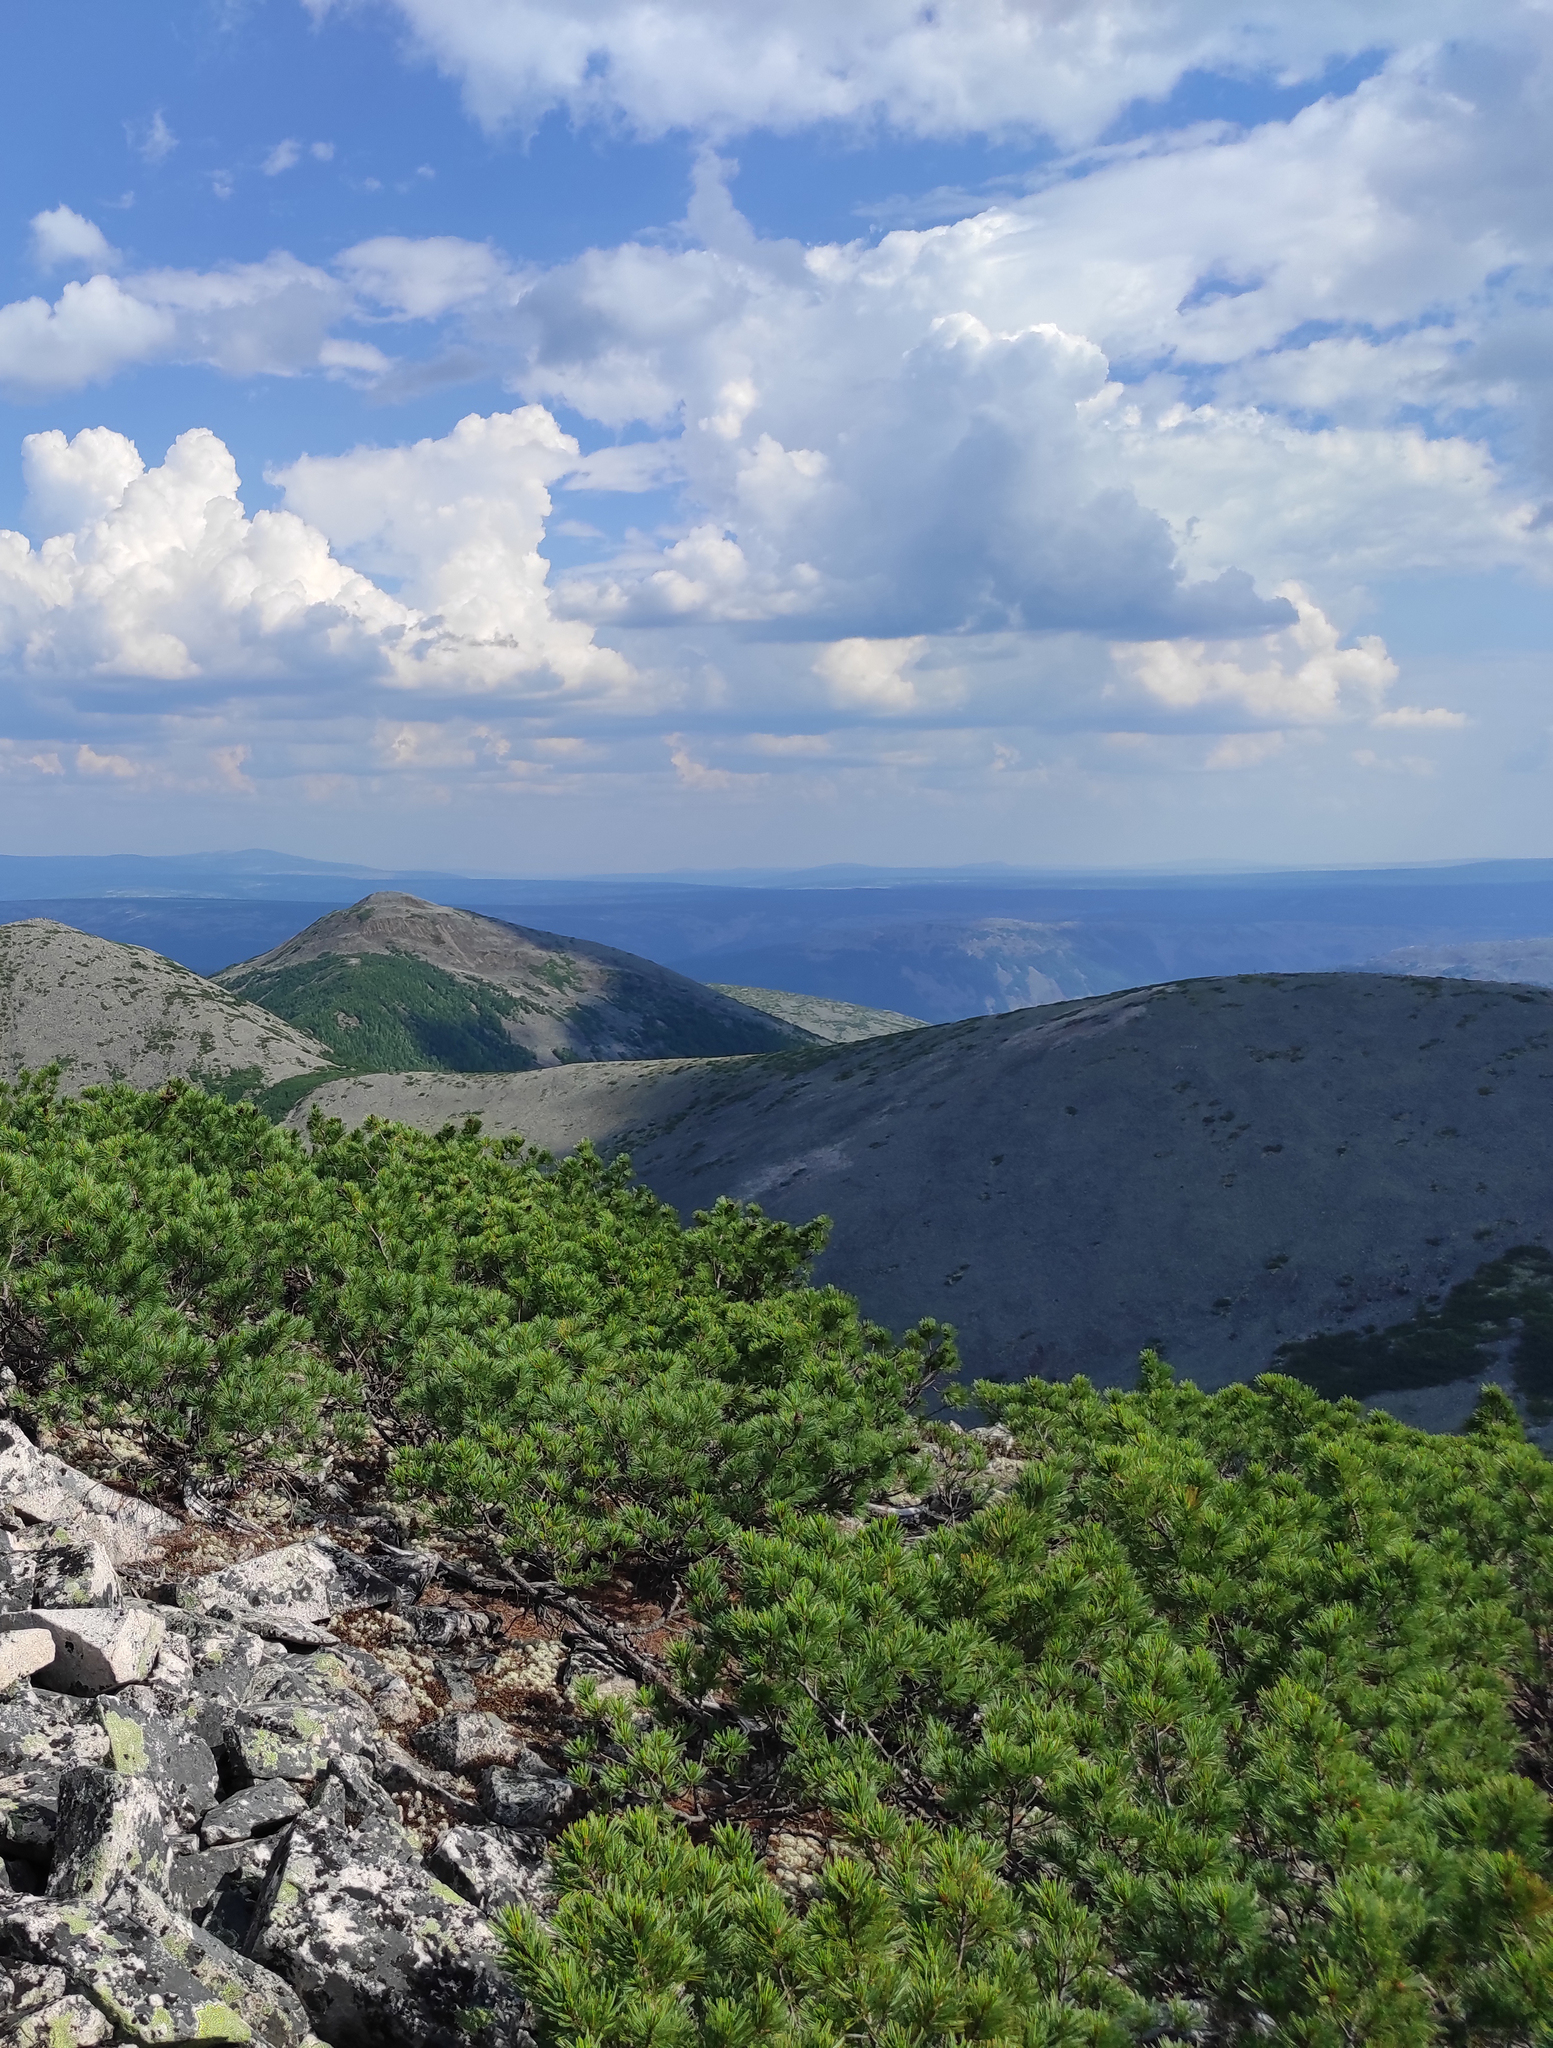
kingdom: Plantae
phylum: Tracheophyta
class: Pinopsida
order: Pinales
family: Pinaceae
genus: Pinus
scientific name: Pinus pumila
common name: Dwarf siberian pine
